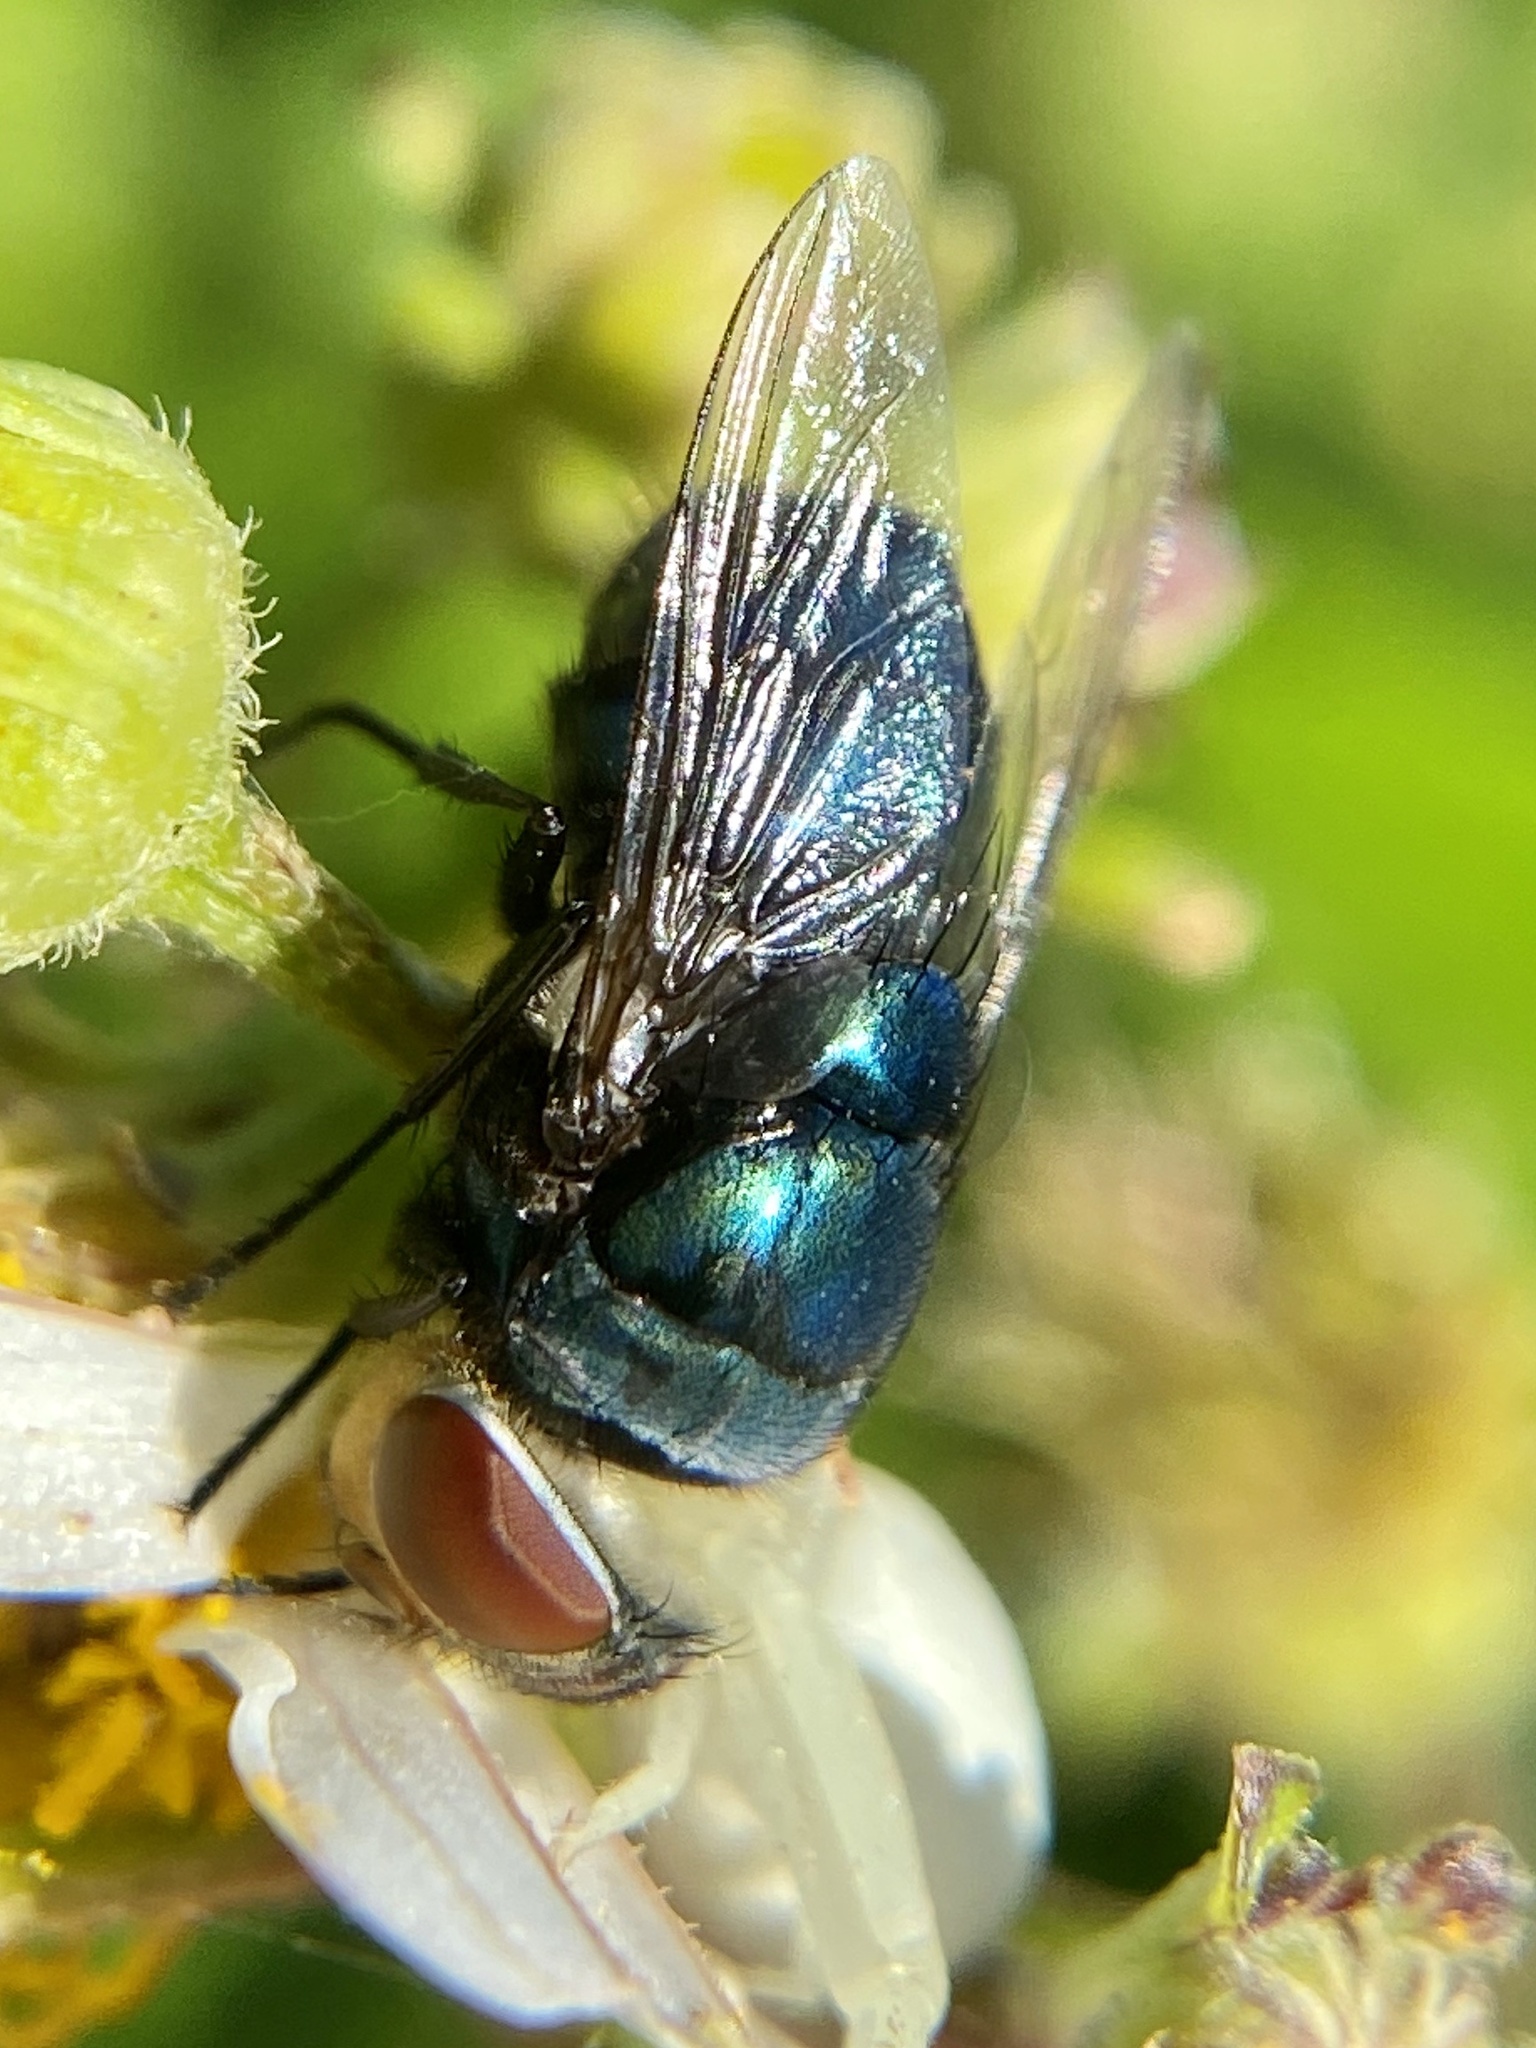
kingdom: Animalia
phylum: Arthropoda
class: Insecta
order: Diptera
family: Calliphoridae
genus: Chrysomya
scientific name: Chrysomya megacephala
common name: Blow fly
